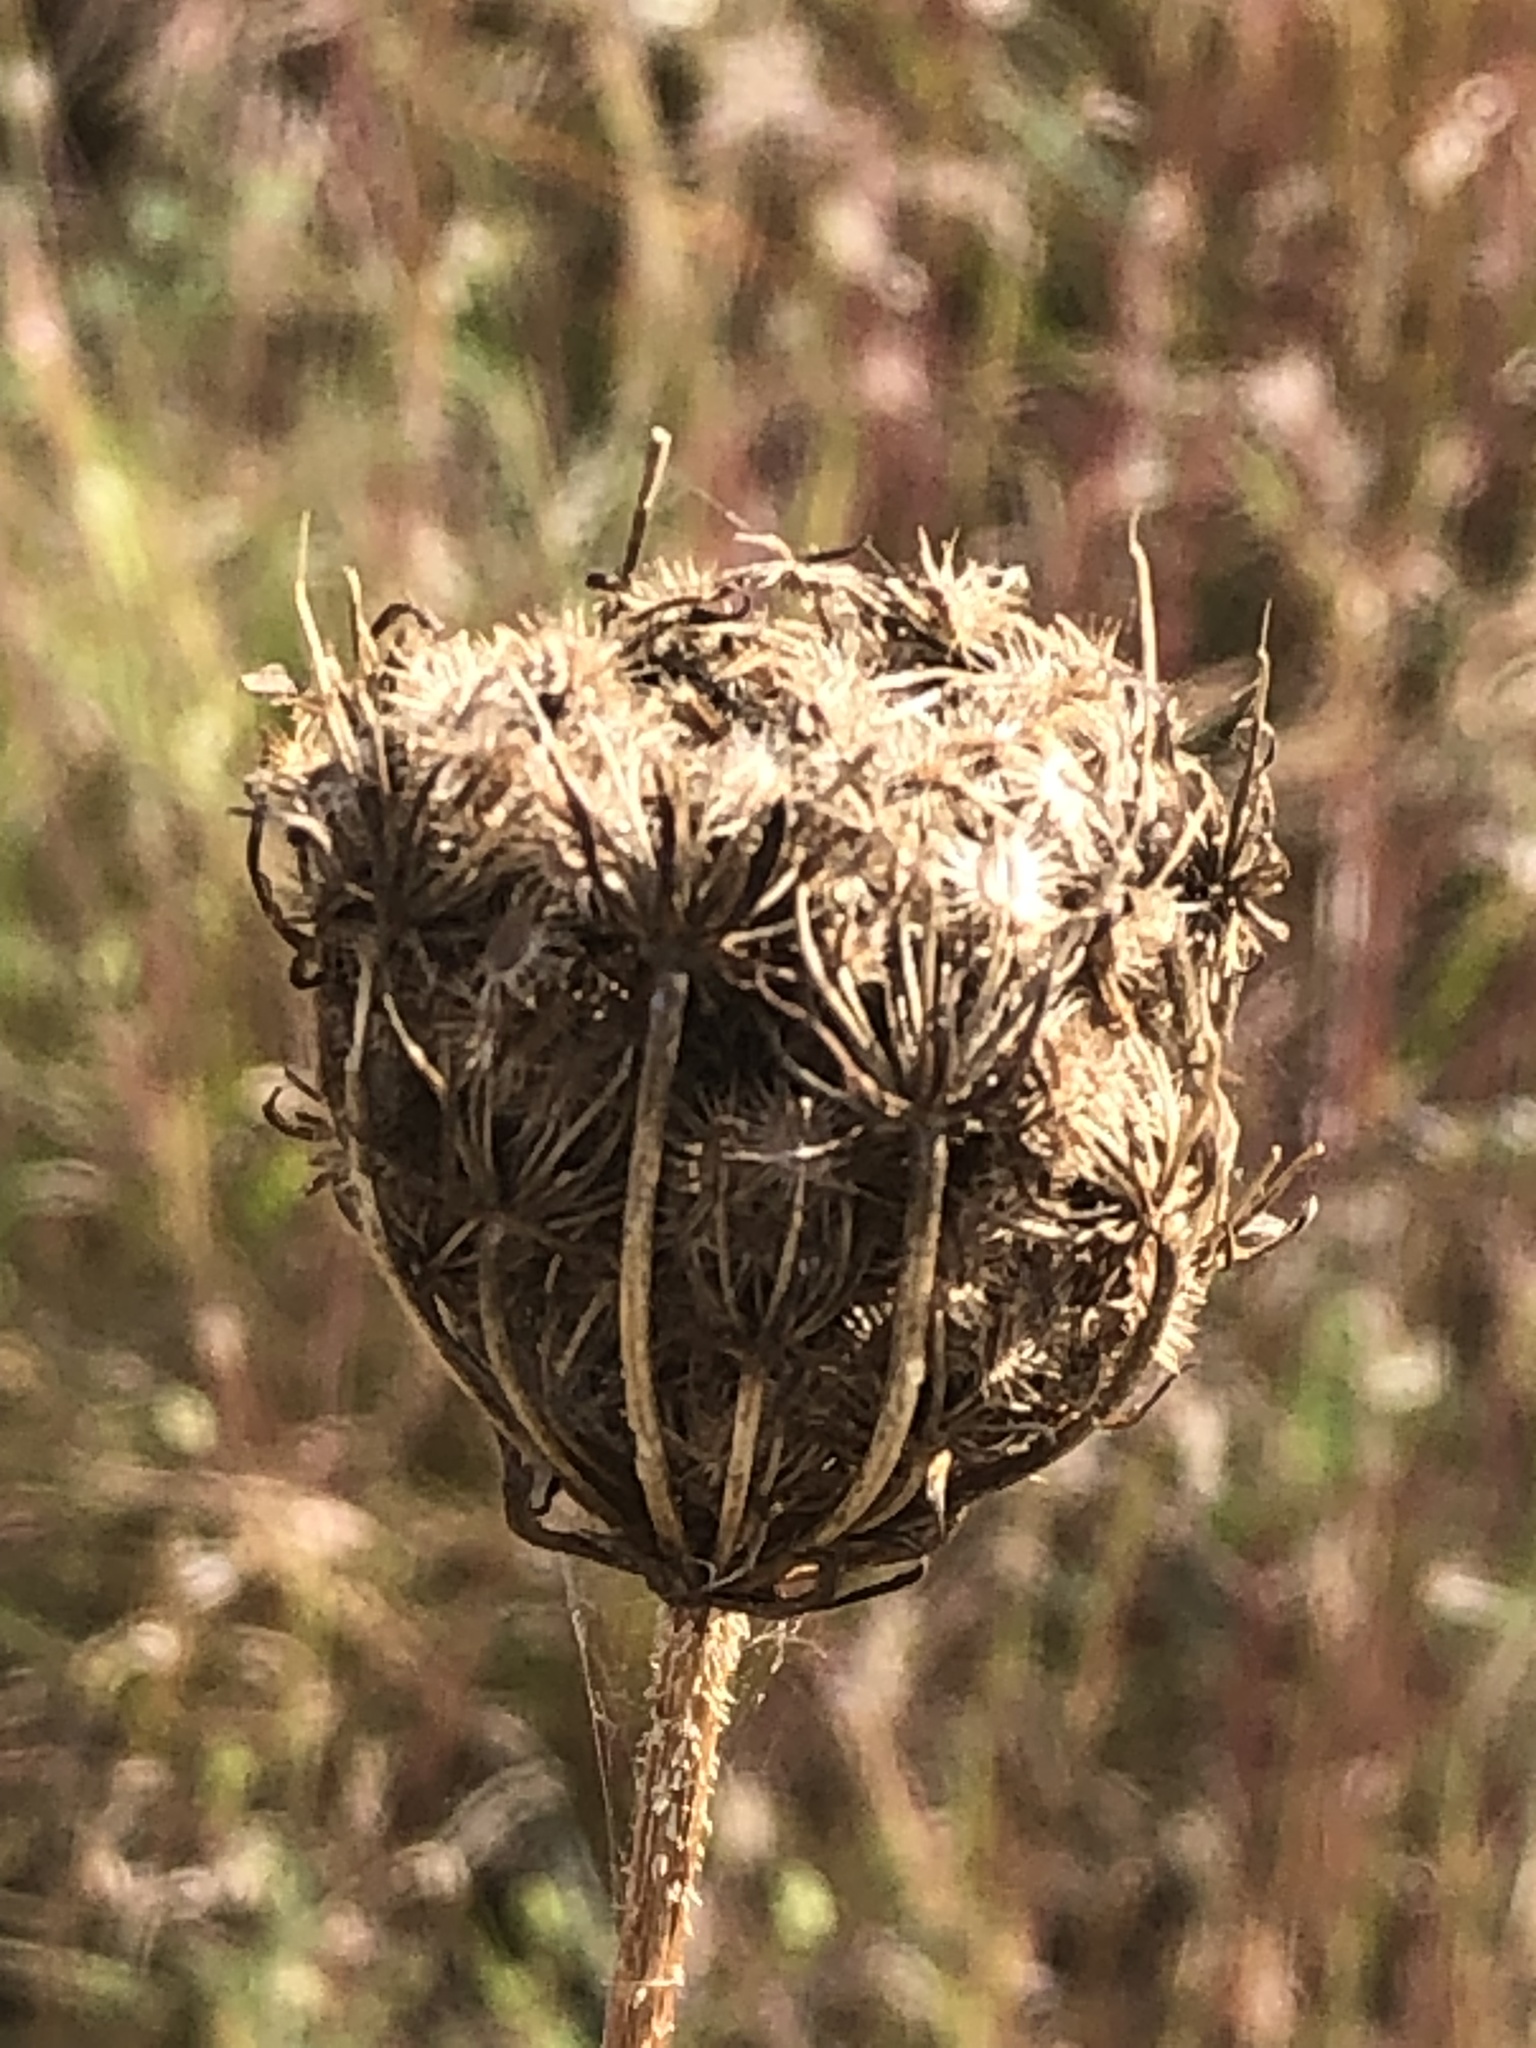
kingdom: Plantae
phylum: Tracheophyta
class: Magnoliopsida
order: Apiales
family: Apiaceae
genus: Daucus
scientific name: Daucus carota
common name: Wild carrot
